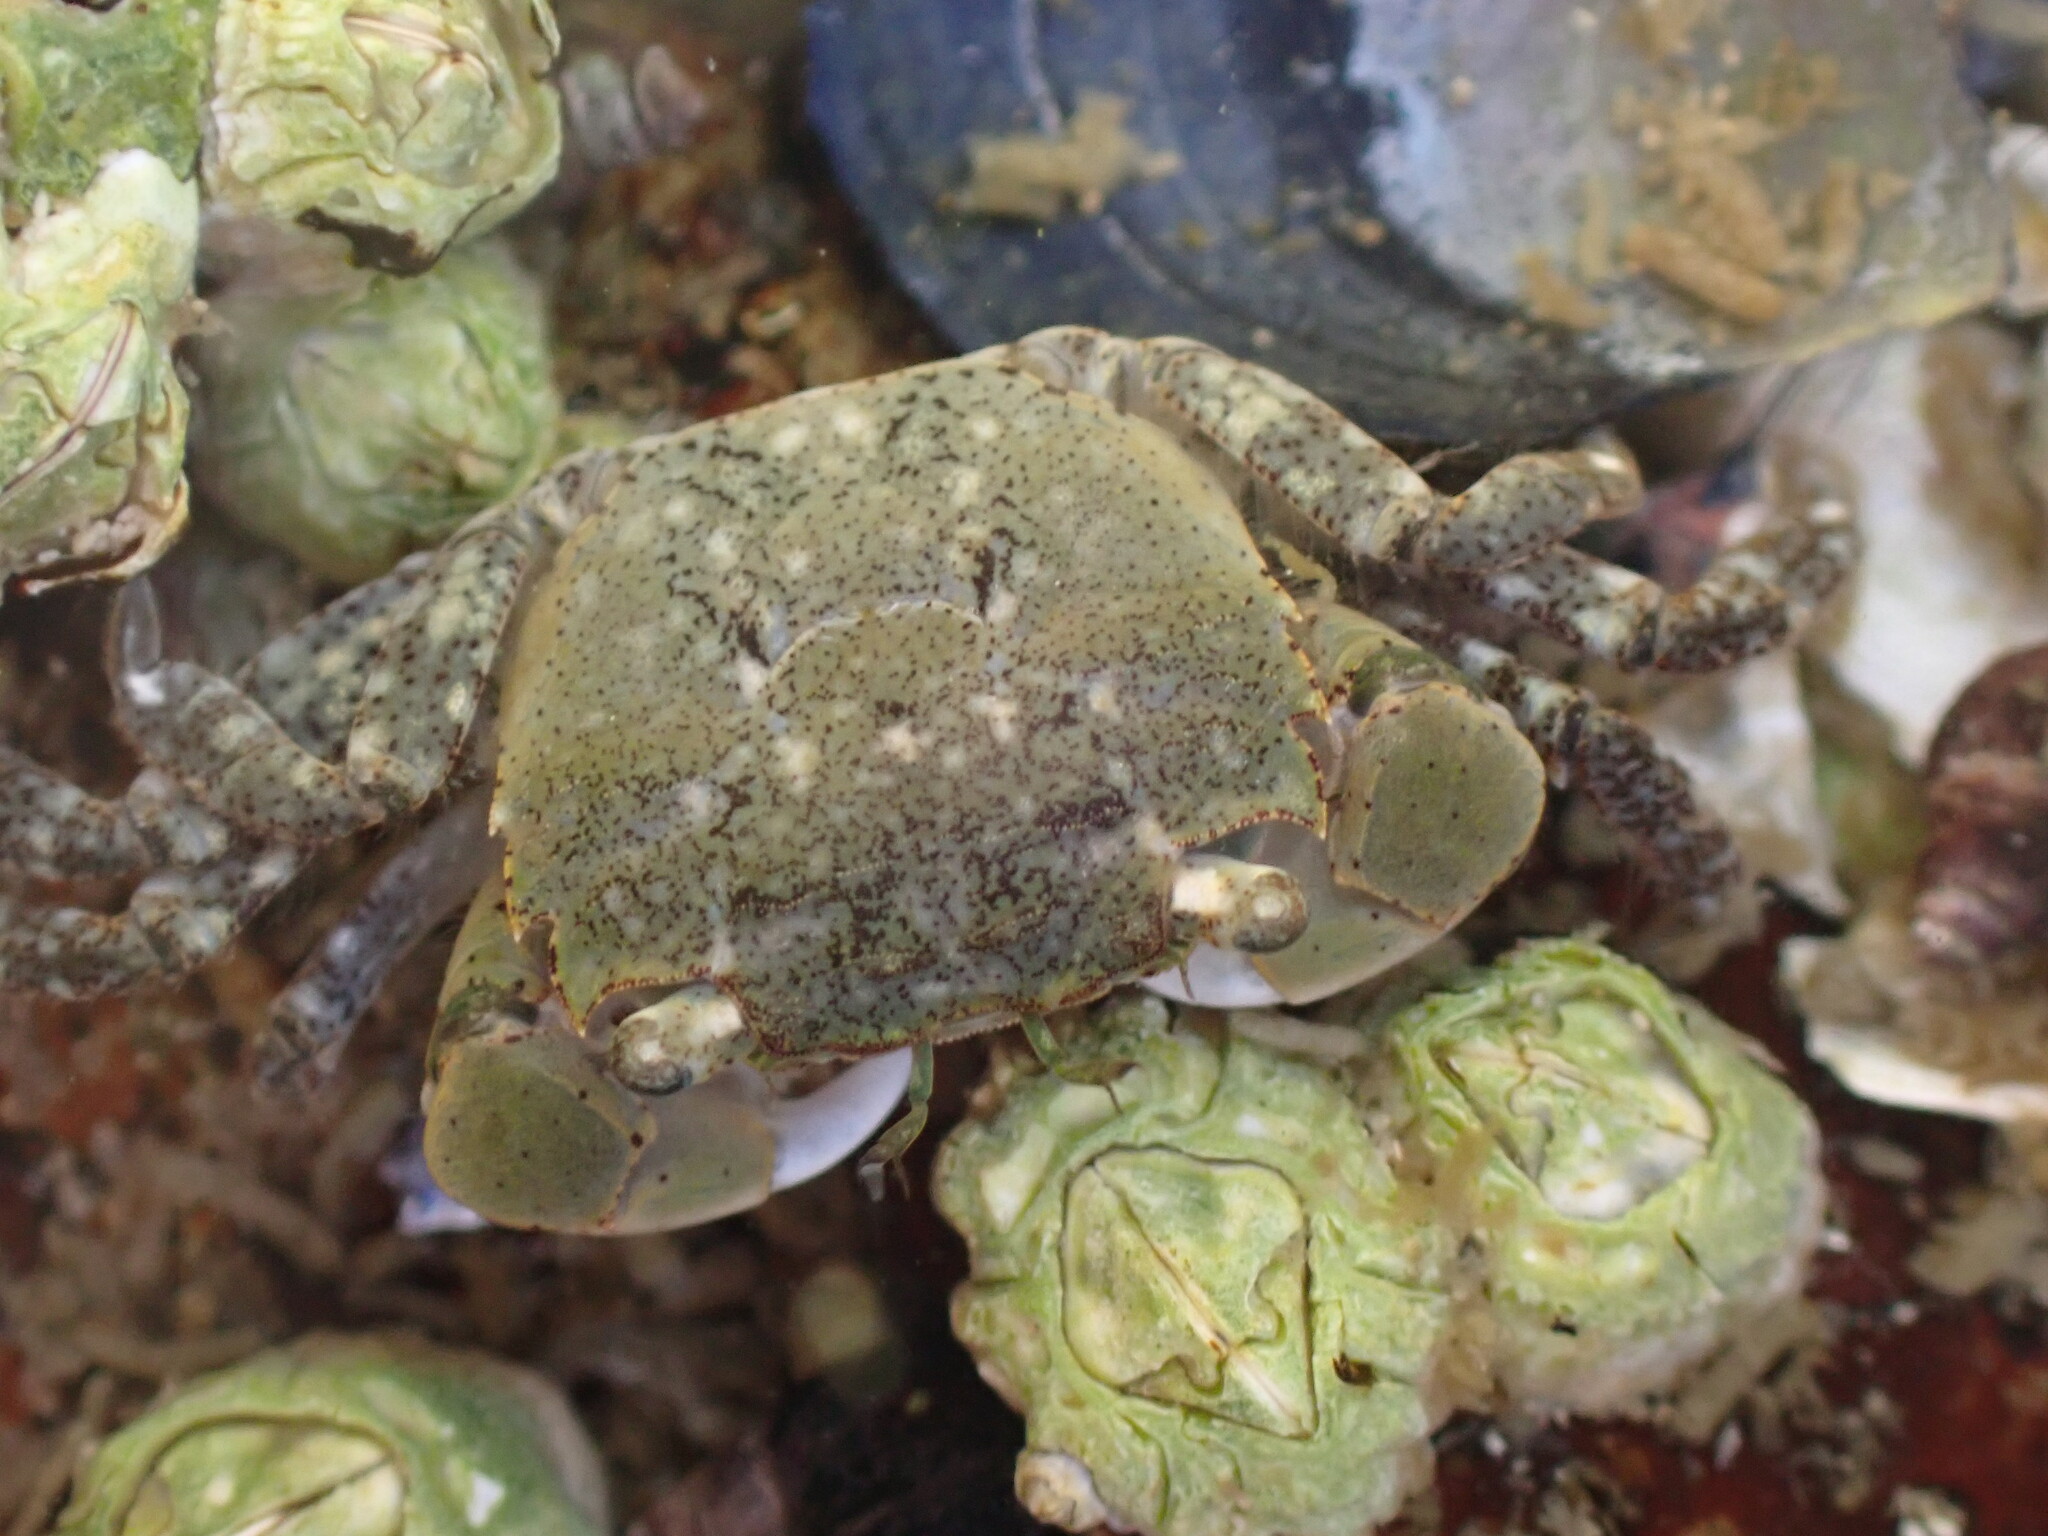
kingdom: Animalia
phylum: Arthropoda
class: Malacostraca
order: Decapoda
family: Varunidae
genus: Hemigrapsus
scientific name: Hemigrapsus oregonensis
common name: Yellow shore crab
